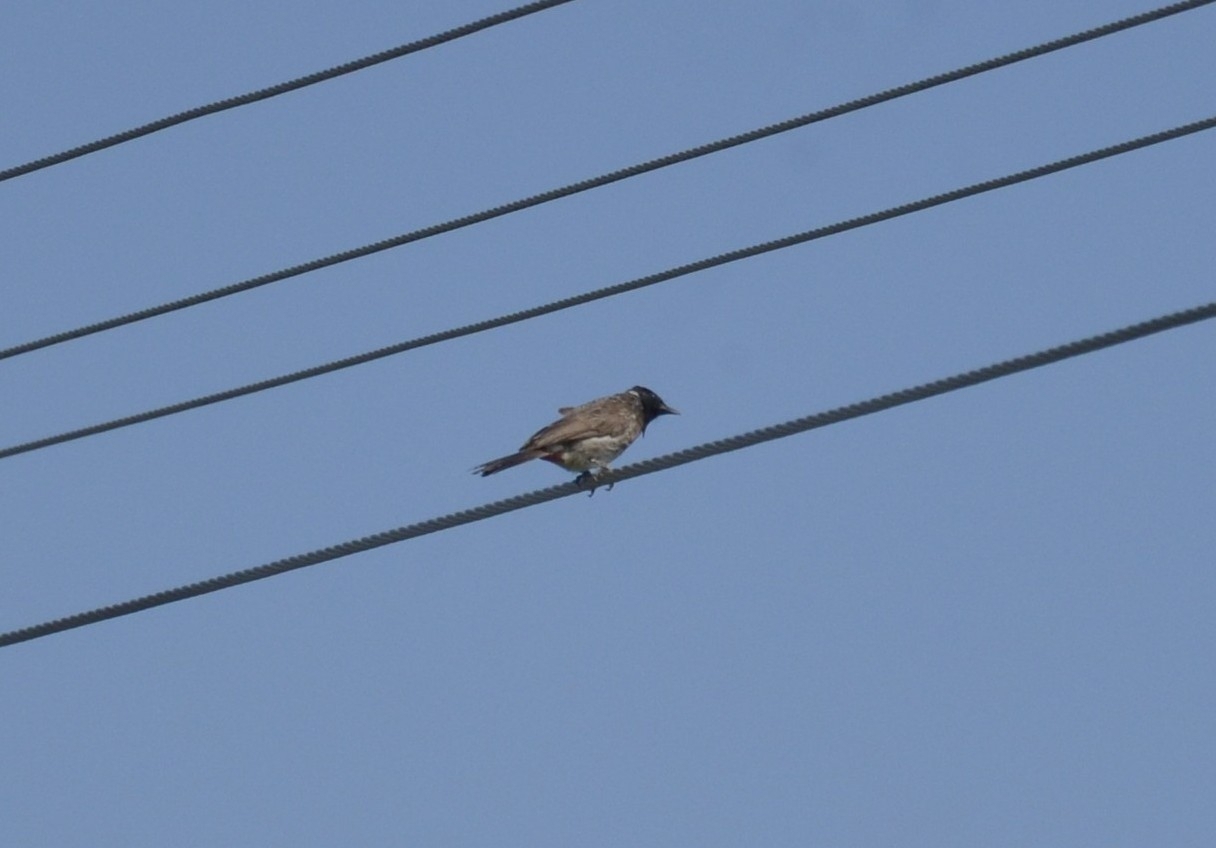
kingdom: Animalia
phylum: Chordata
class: Aves
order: Passeriformes
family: Pycnonotidae
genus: Pycnonotus
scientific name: Pycnonotus cafer
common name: Red-vented bulbul
